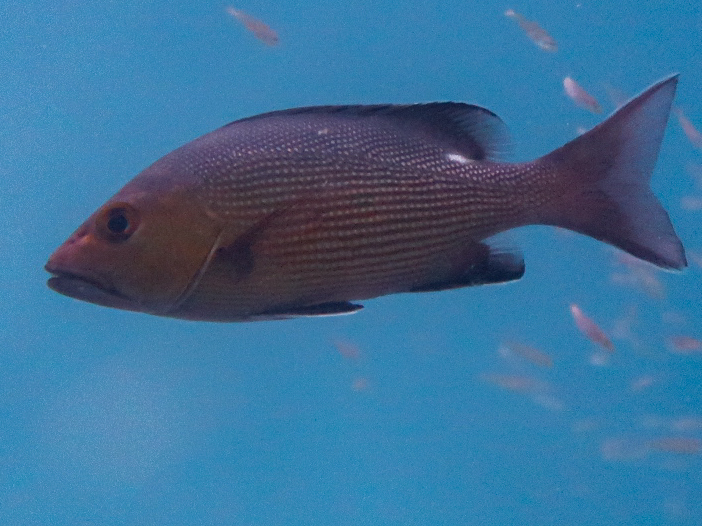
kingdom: Animalia
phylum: Chordata
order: Perciformes
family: Lutjanidae
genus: Lutjanus
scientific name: Lutjanus bohar
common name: Red bass
